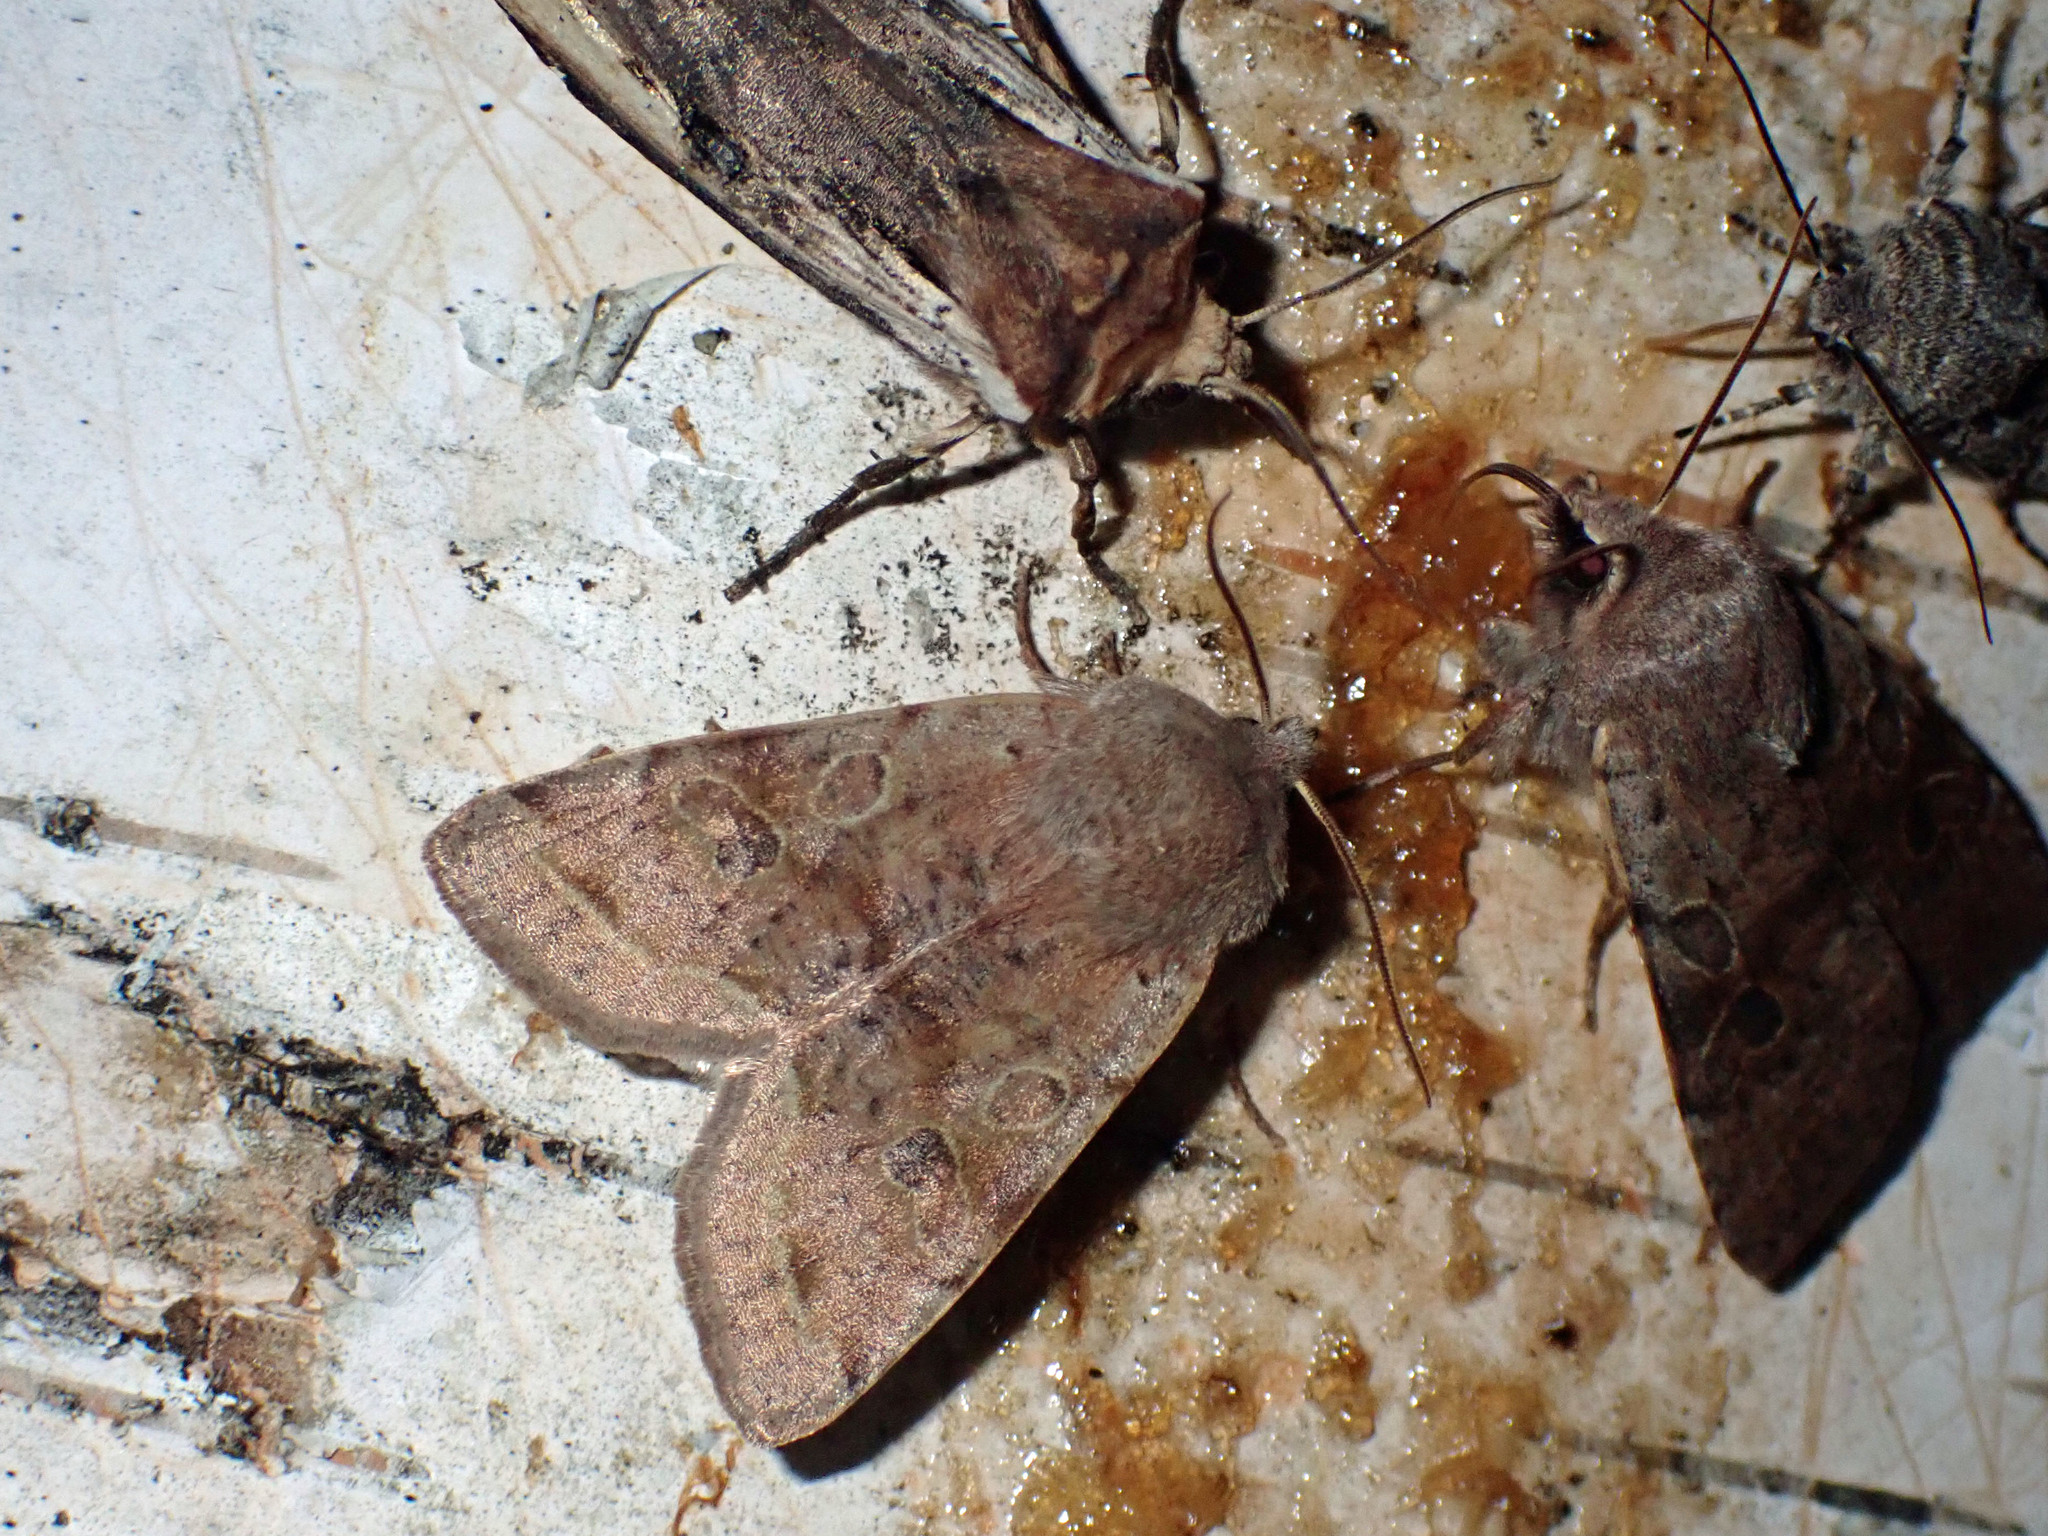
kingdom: Animalia
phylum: Arthropoda
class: Insecta
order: Lepidoptera
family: Noctuidae
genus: Orthosia
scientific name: Orthosia hibisci
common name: Green fruitworm
